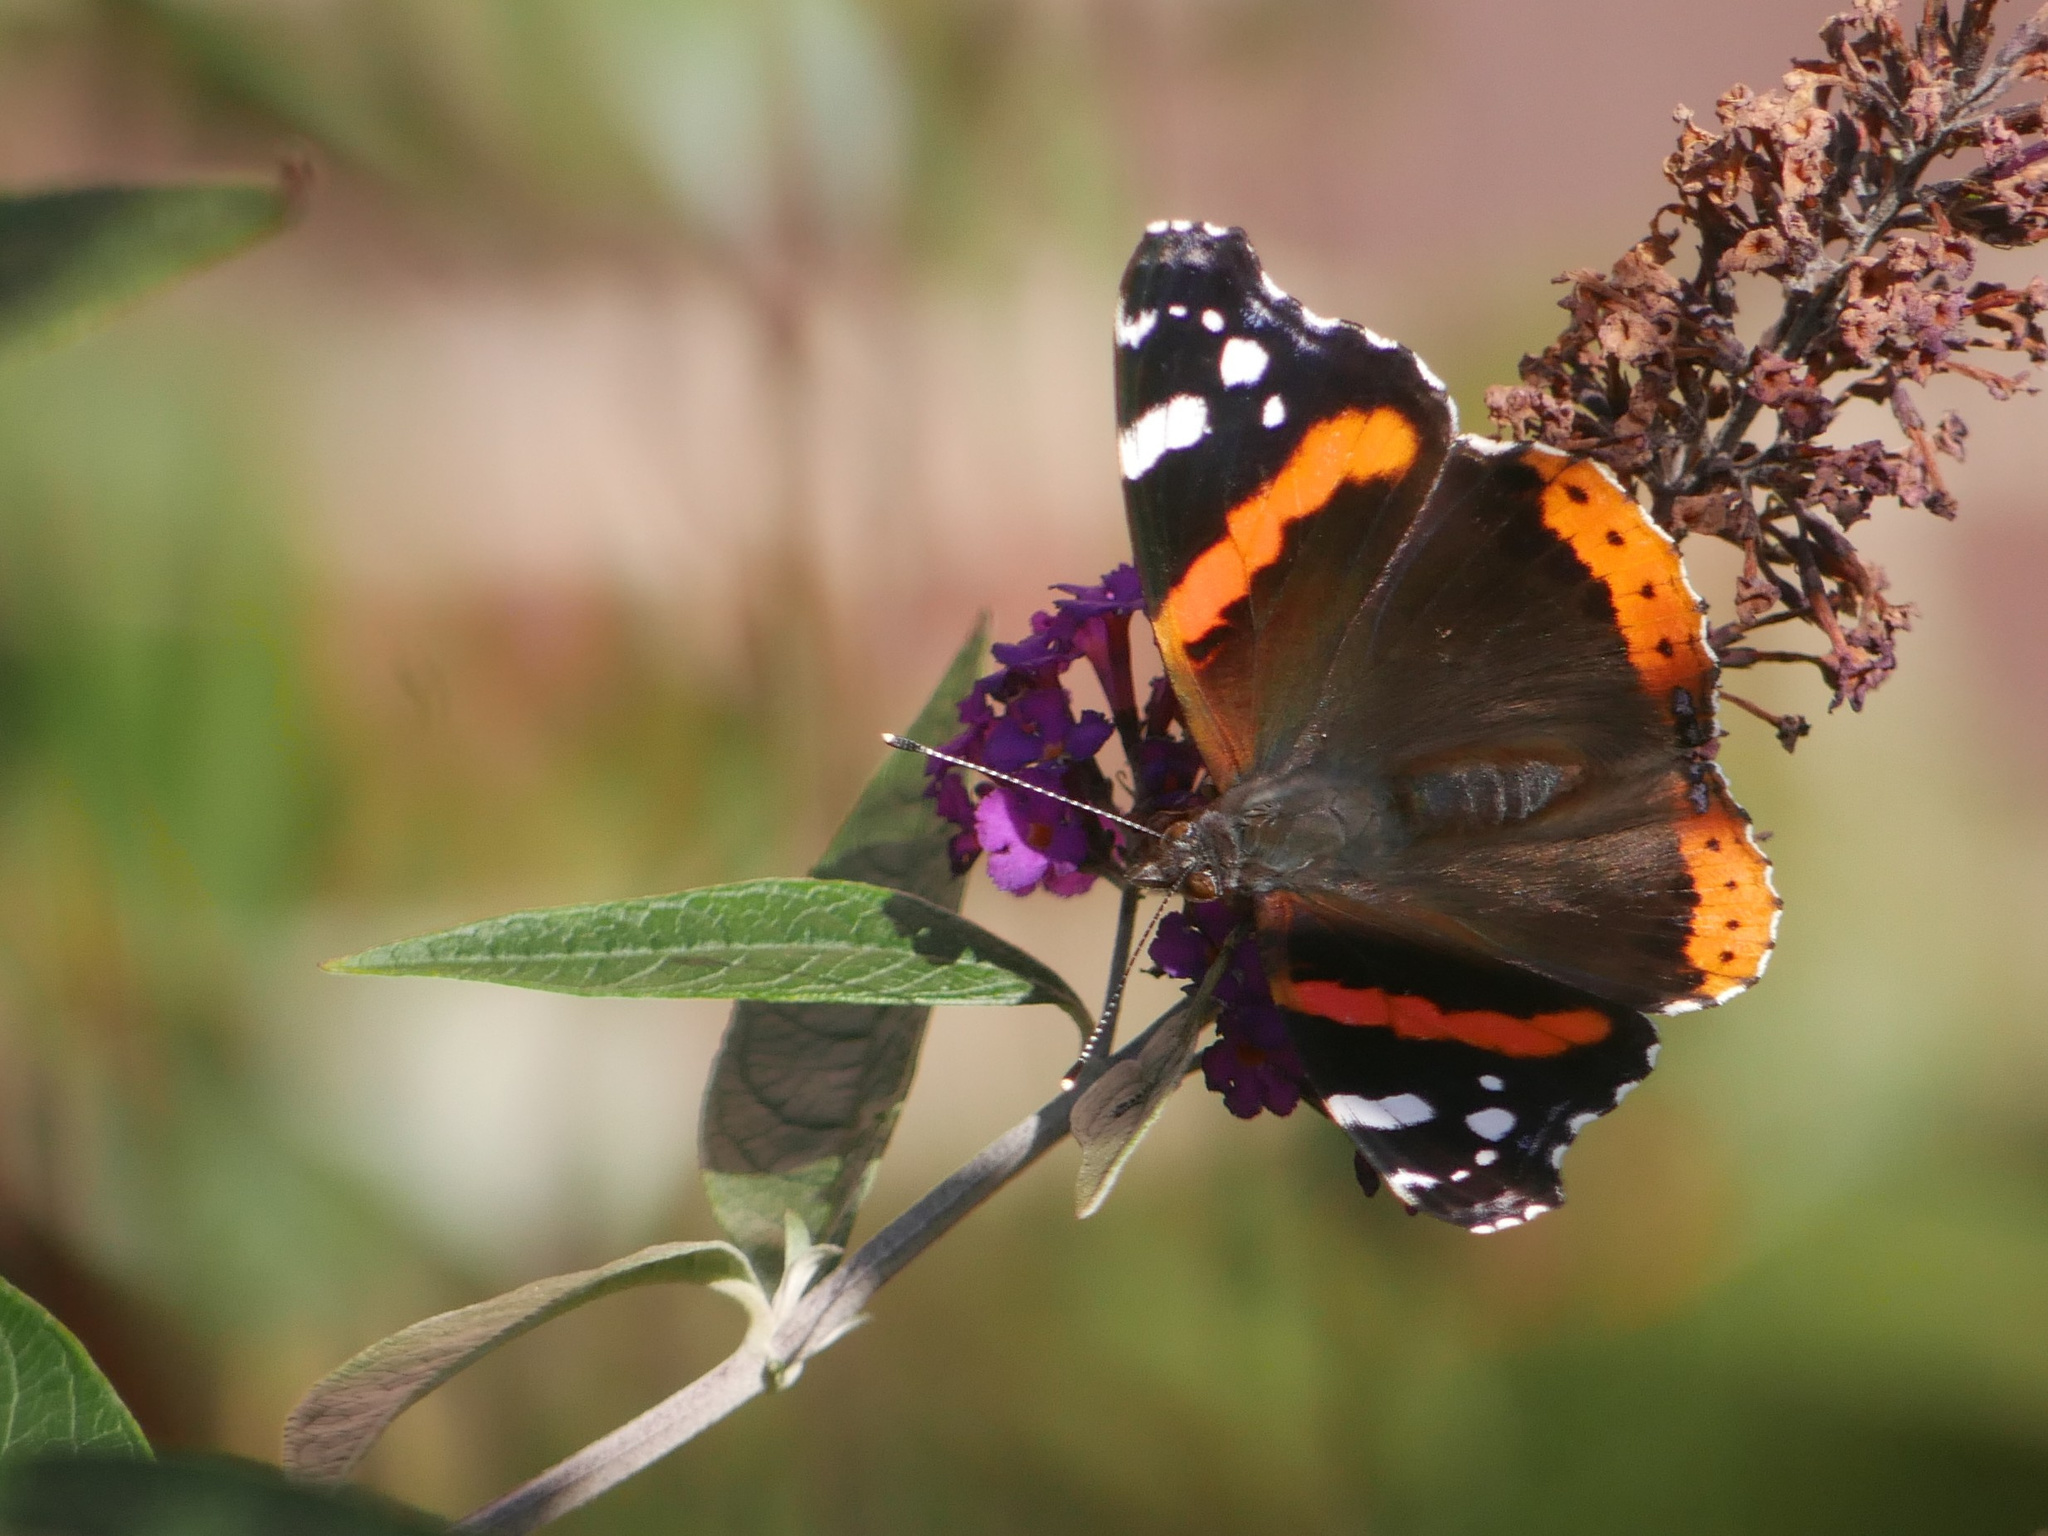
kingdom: Animalia
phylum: Arthropoda
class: Insecta
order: Lepidoptera
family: Nymphalidae
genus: Vanessa
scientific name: Vanessa atalanta
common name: Red admiral
